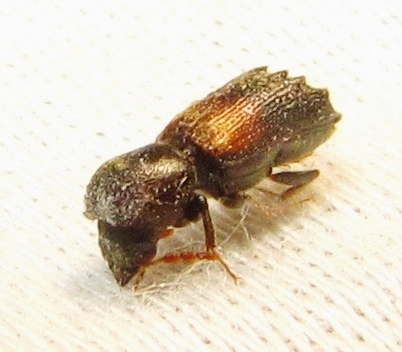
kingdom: Animalia
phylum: Arthropoda
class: Insecta
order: Coleoptera
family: Bostrichidae
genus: Xylobiops
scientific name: Xylobiops basilaris
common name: Red-shouldered bostrichid
